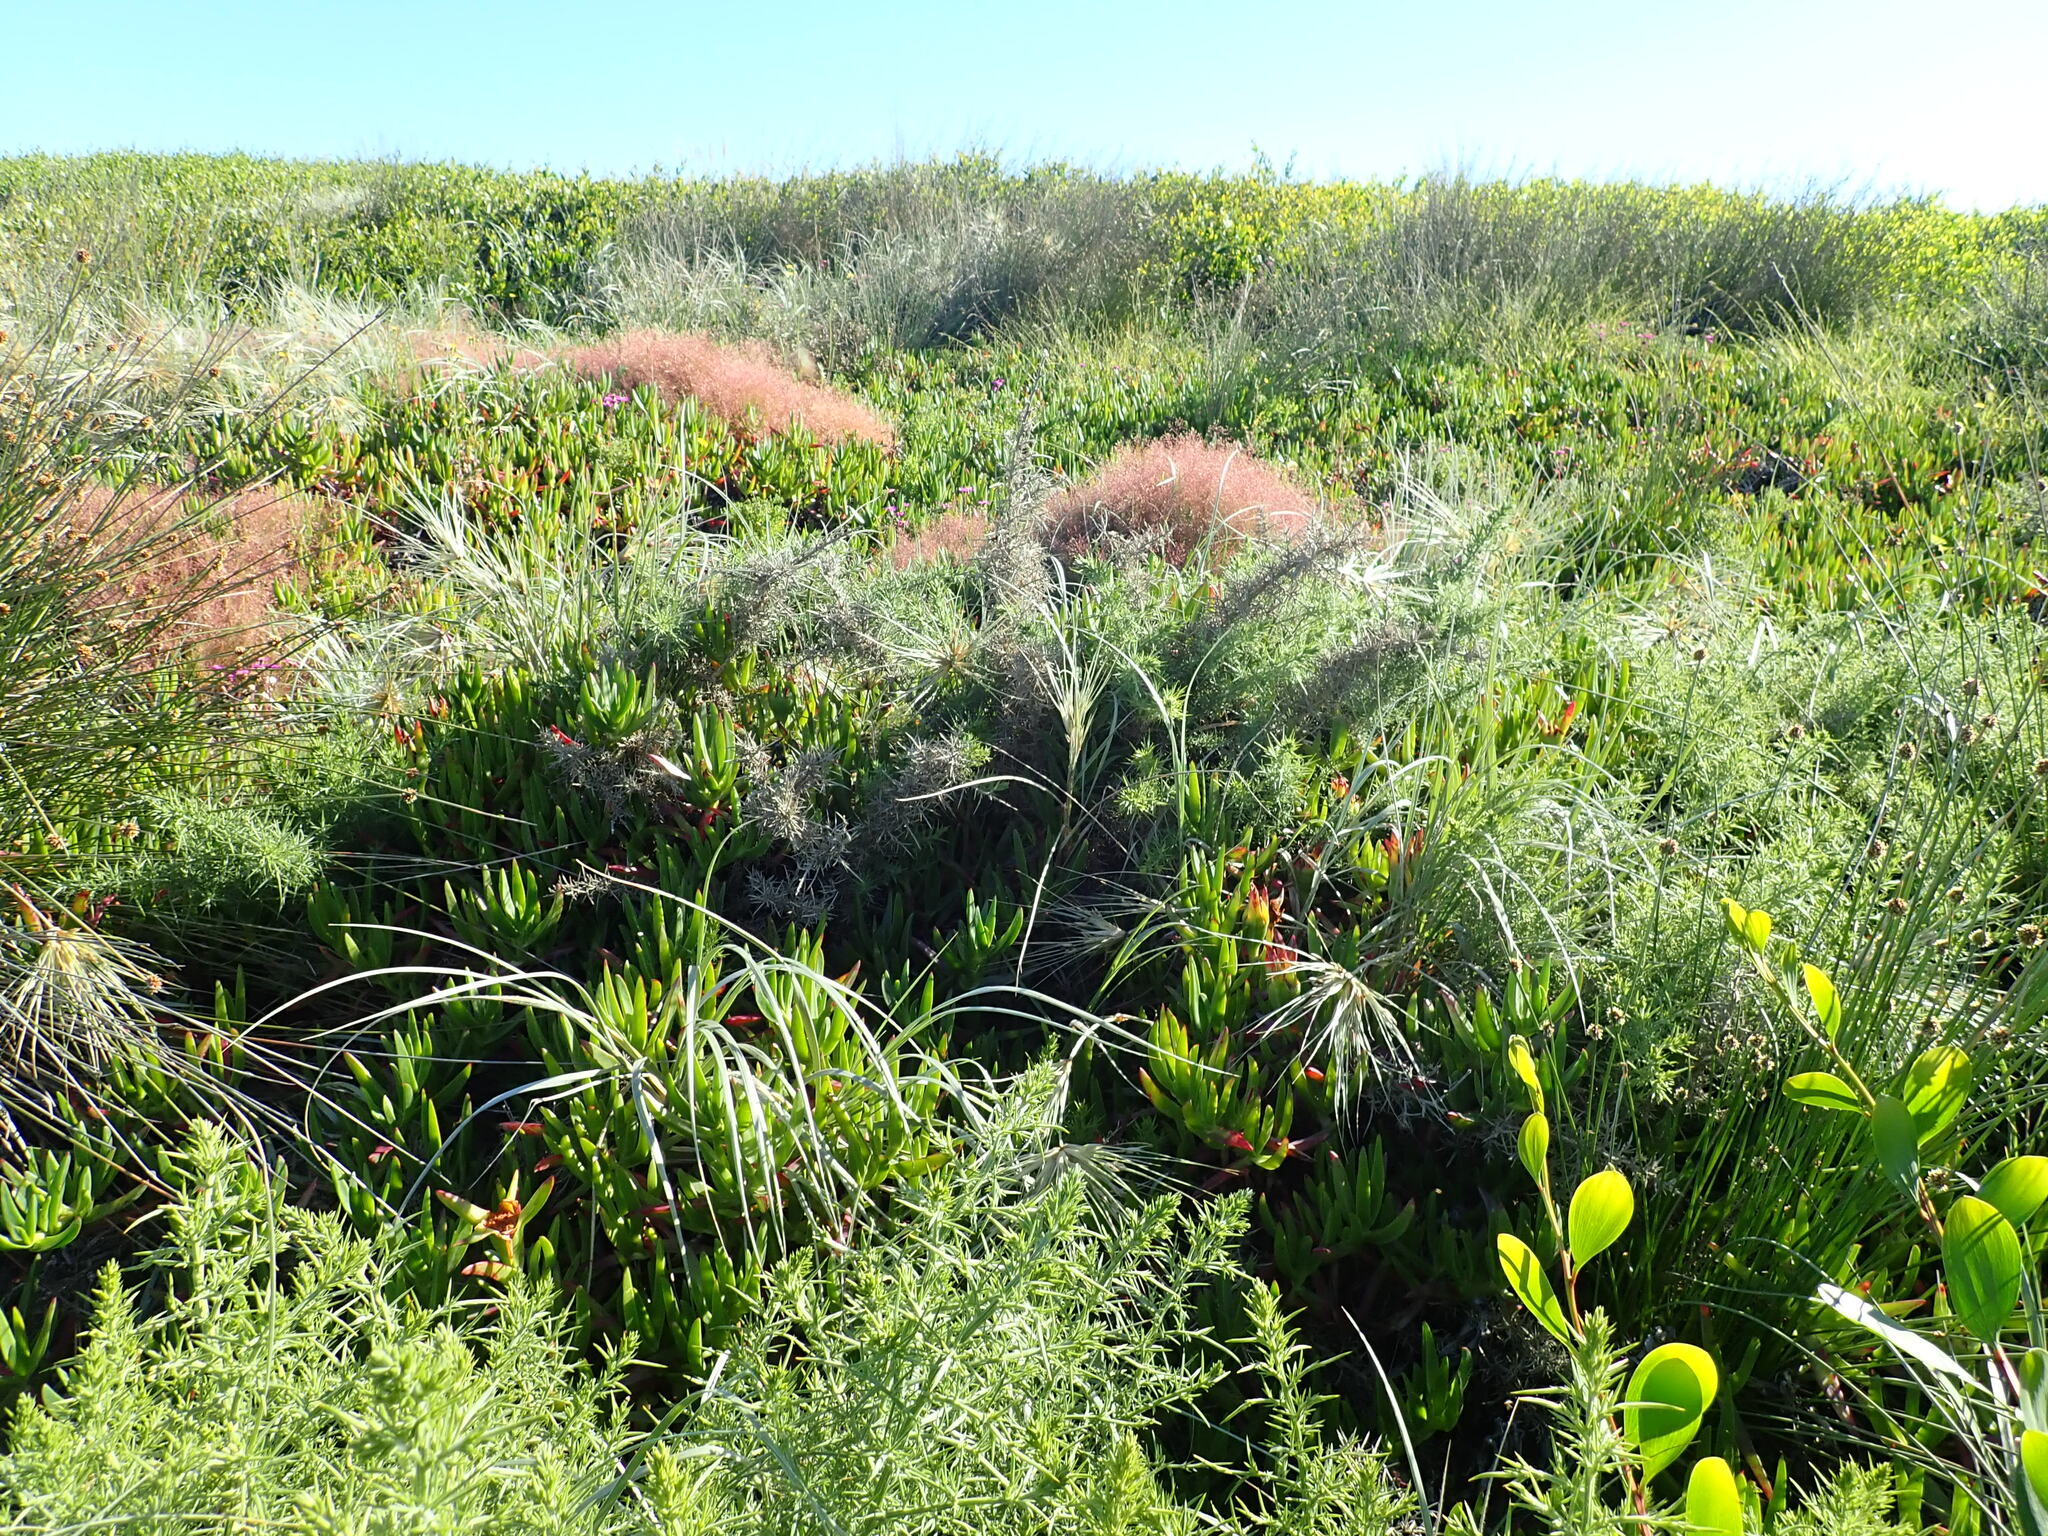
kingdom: Plantae
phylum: Tracheophyta
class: Magnoliopsida
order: Fabales
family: Fabaceae
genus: Ulex
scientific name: Ulex europaeus
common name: Common gorse
